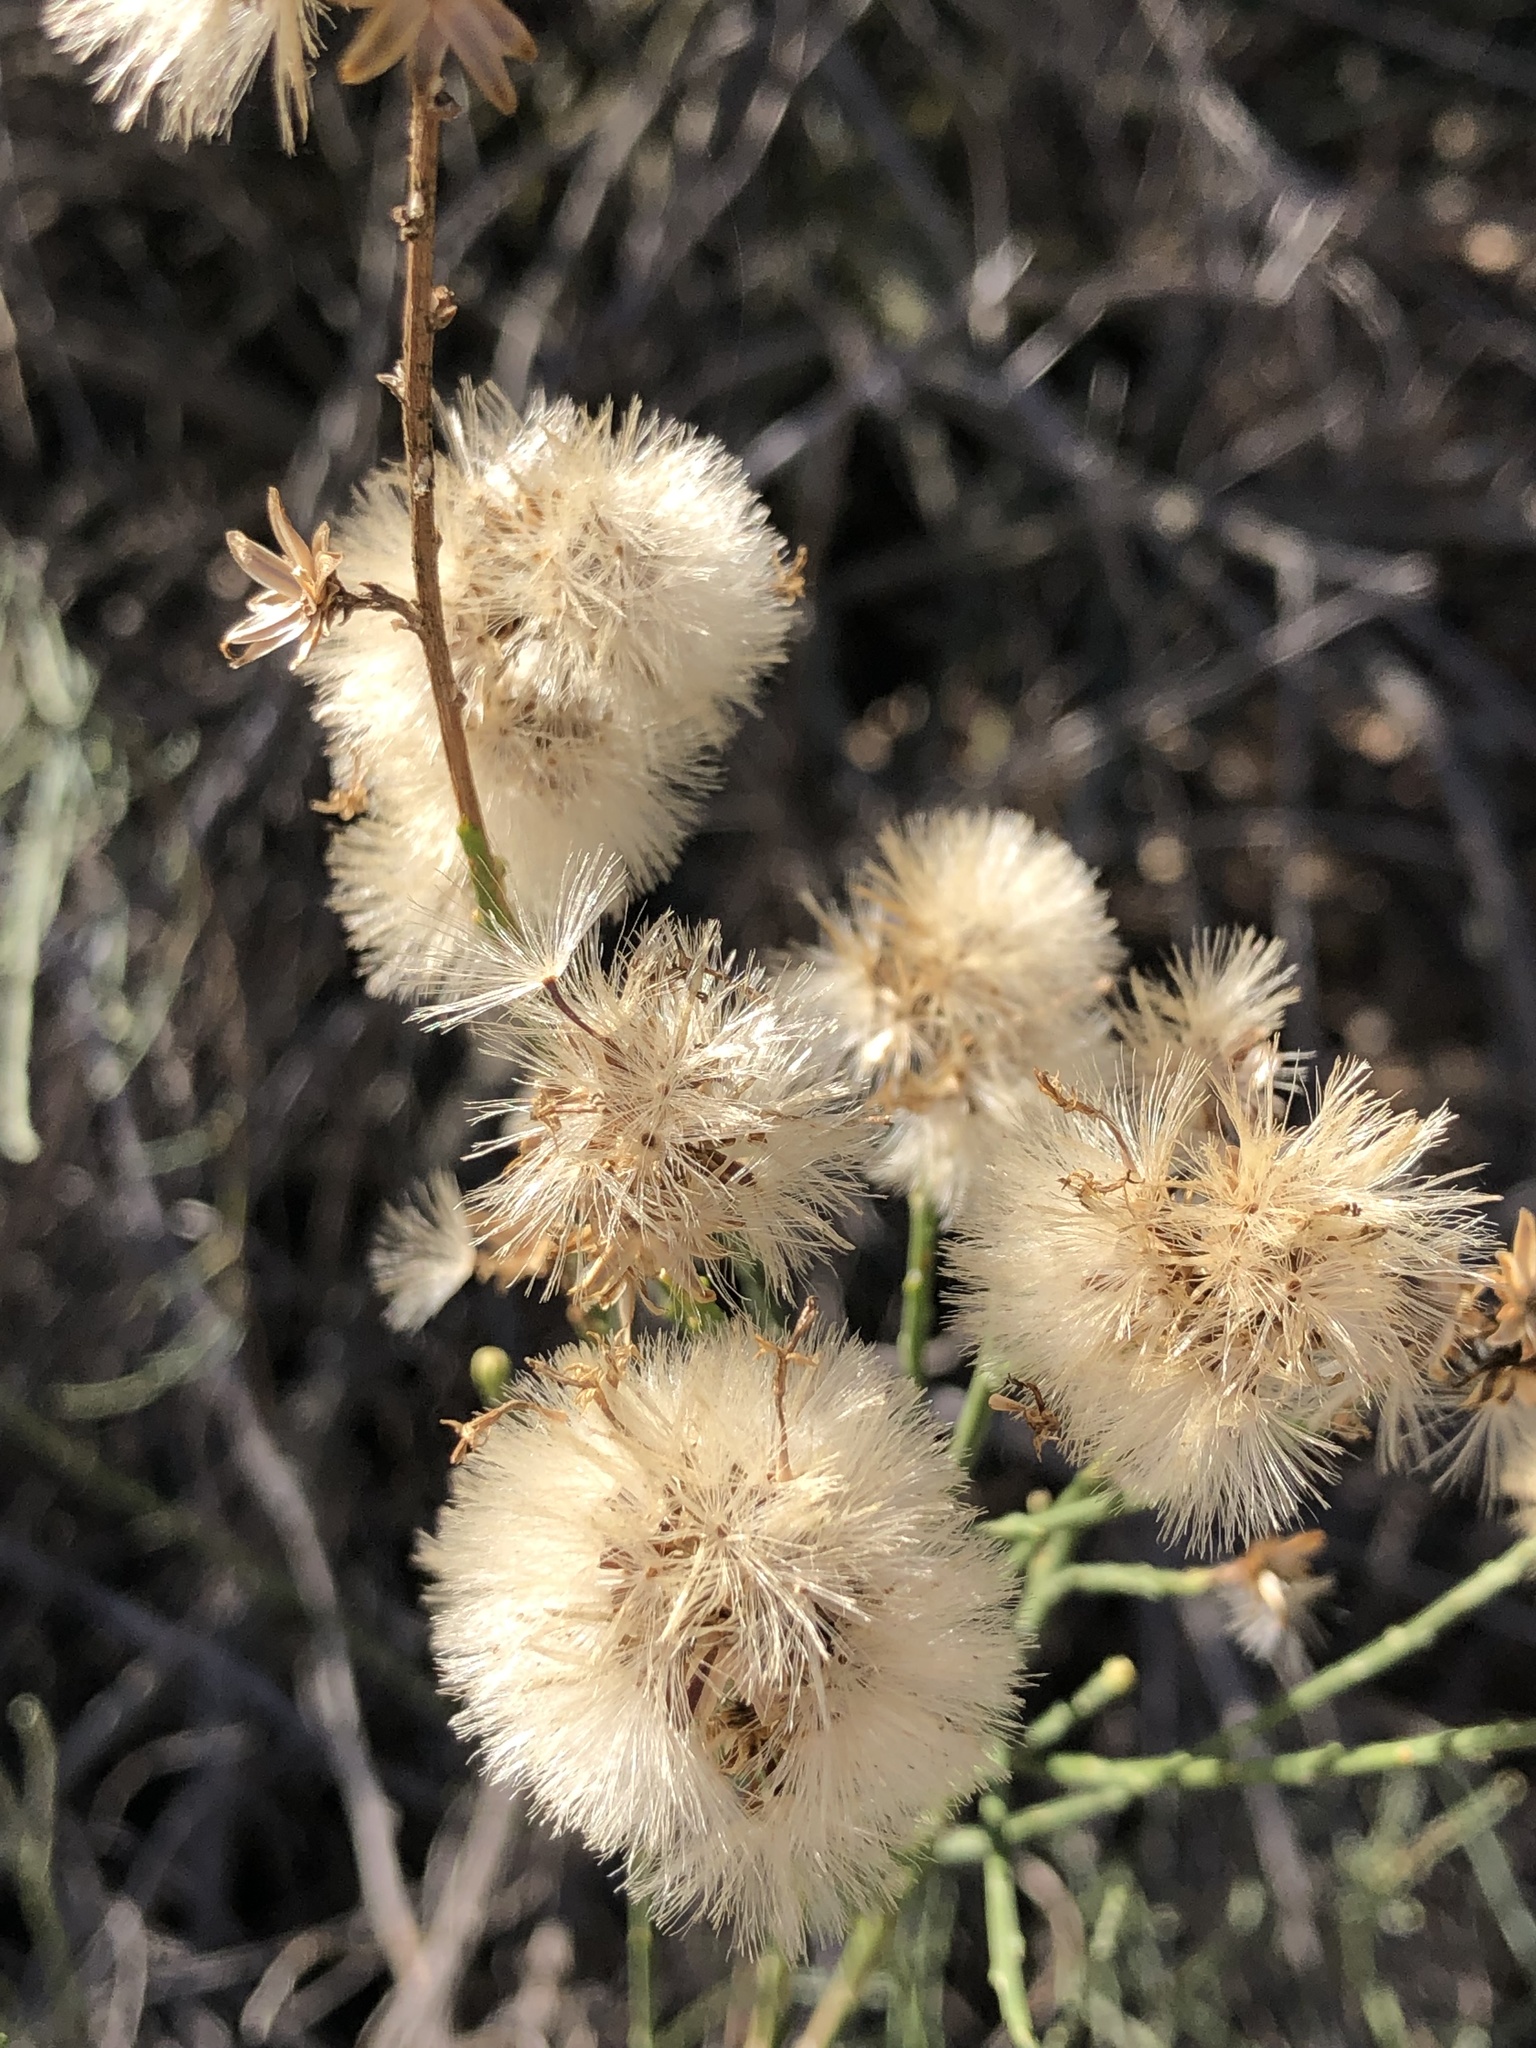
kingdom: Plantae
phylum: Tracheophyta
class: Magnoliopsida
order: Asterales
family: Asteraceae
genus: Lepidospartum
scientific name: Lepidospartum squamatum
